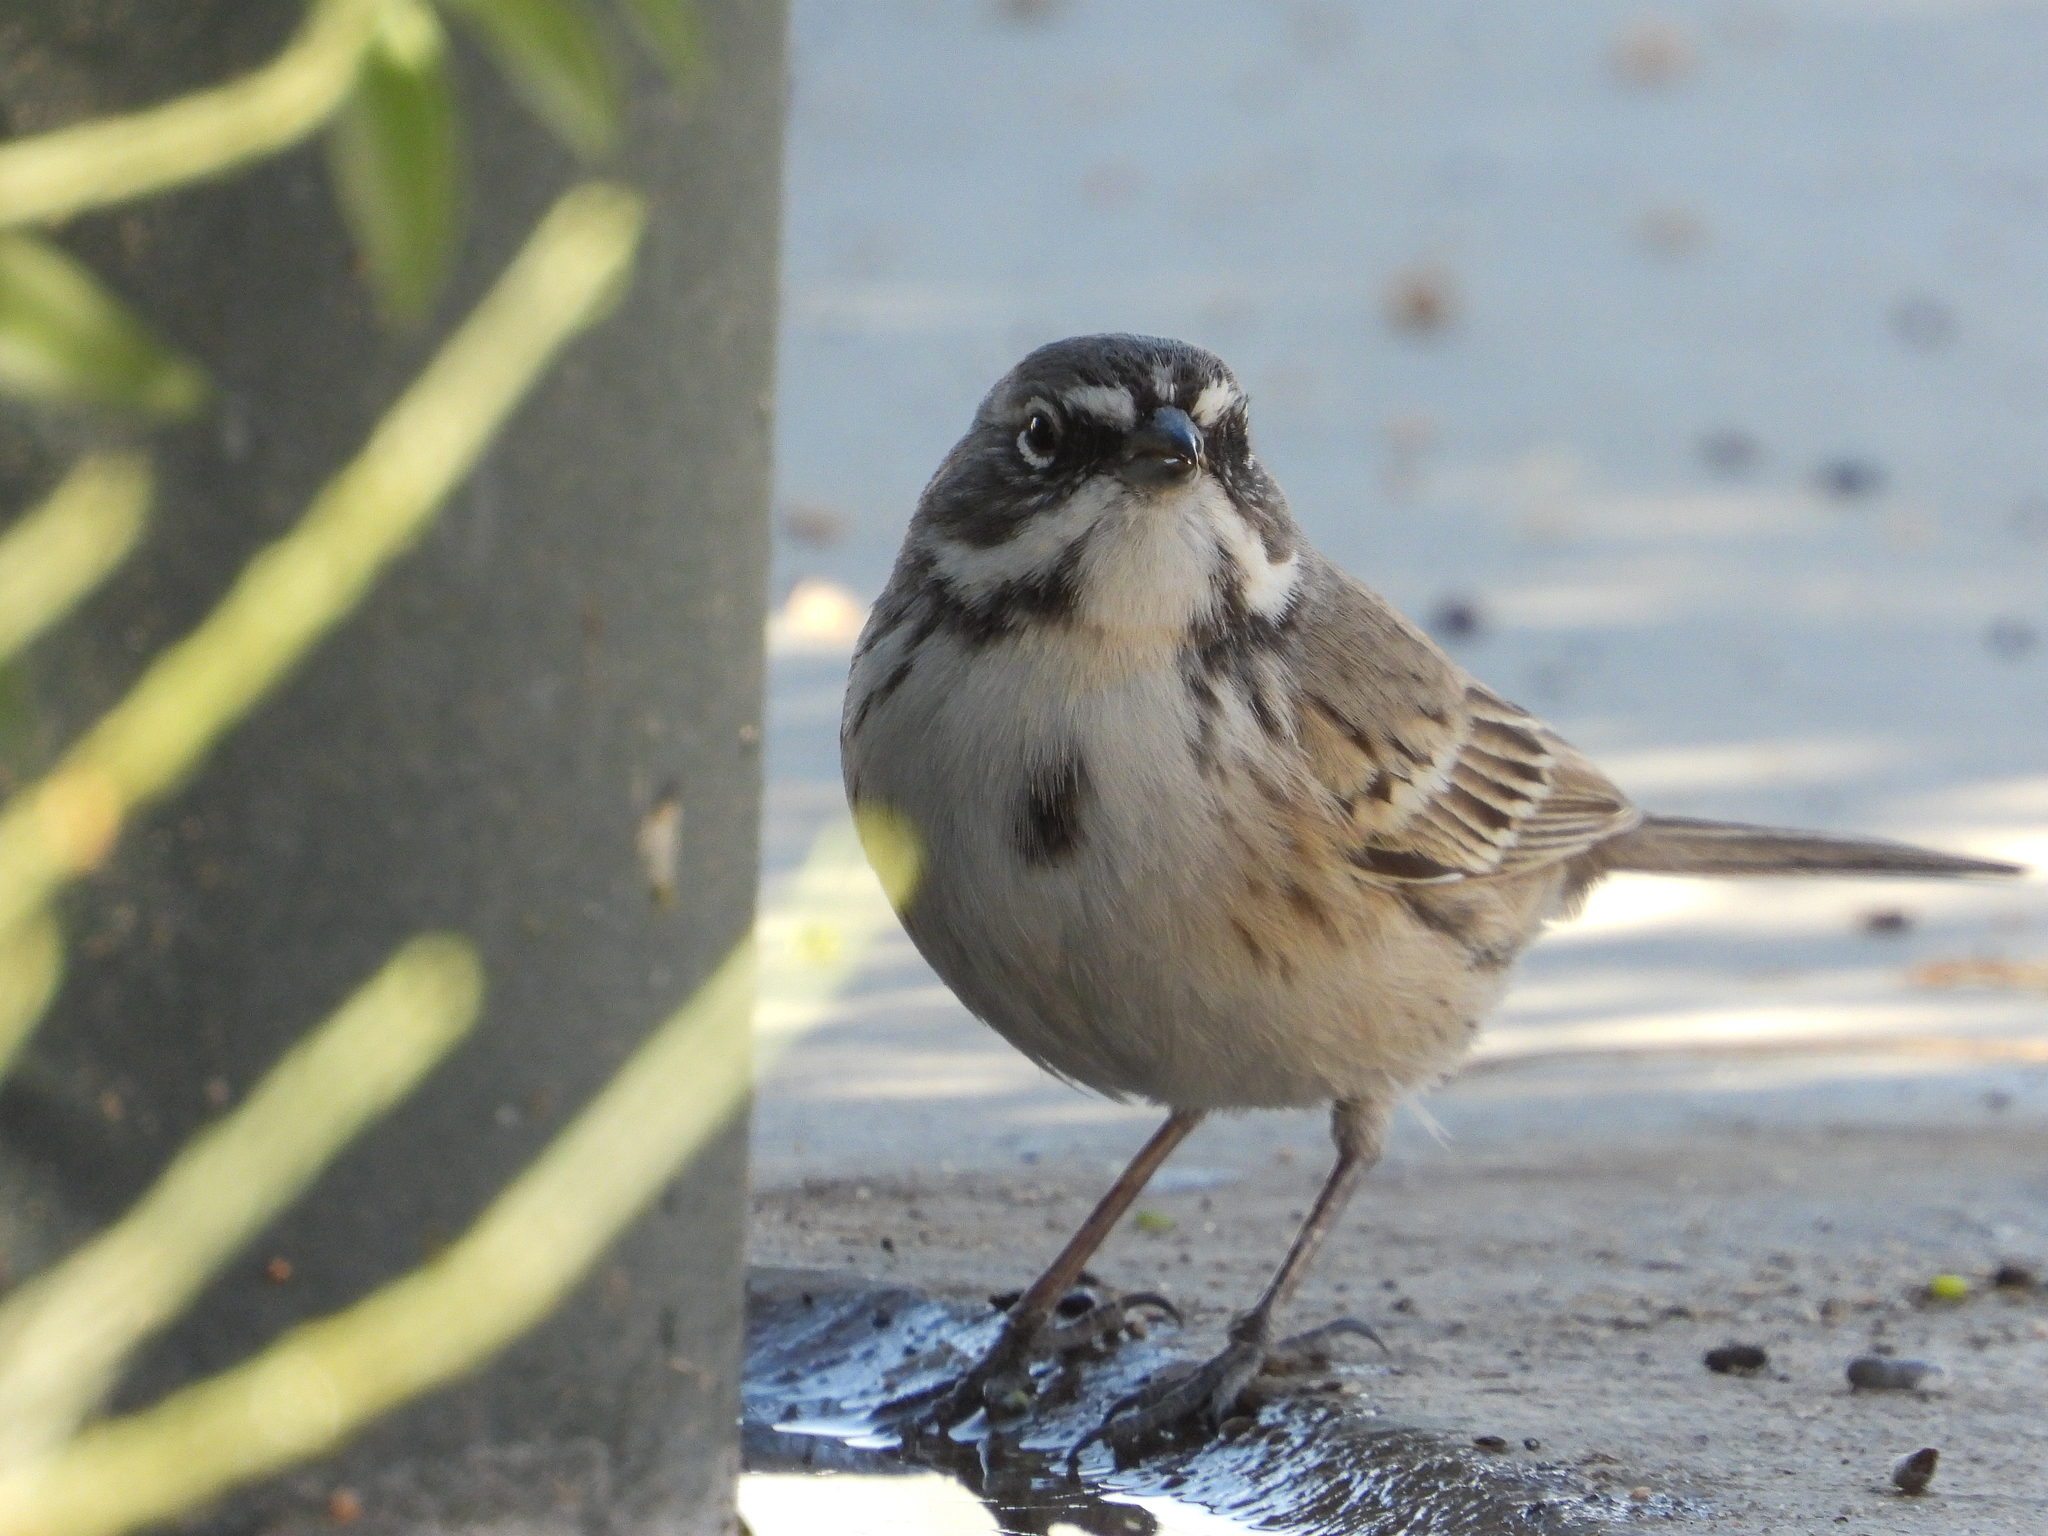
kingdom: Animalia
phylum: Chordata
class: Aves
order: Passeriformes
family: Passerellidae
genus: Artemisiospiza
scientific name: Artemisiospiza belli
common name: Bell's sparrow
